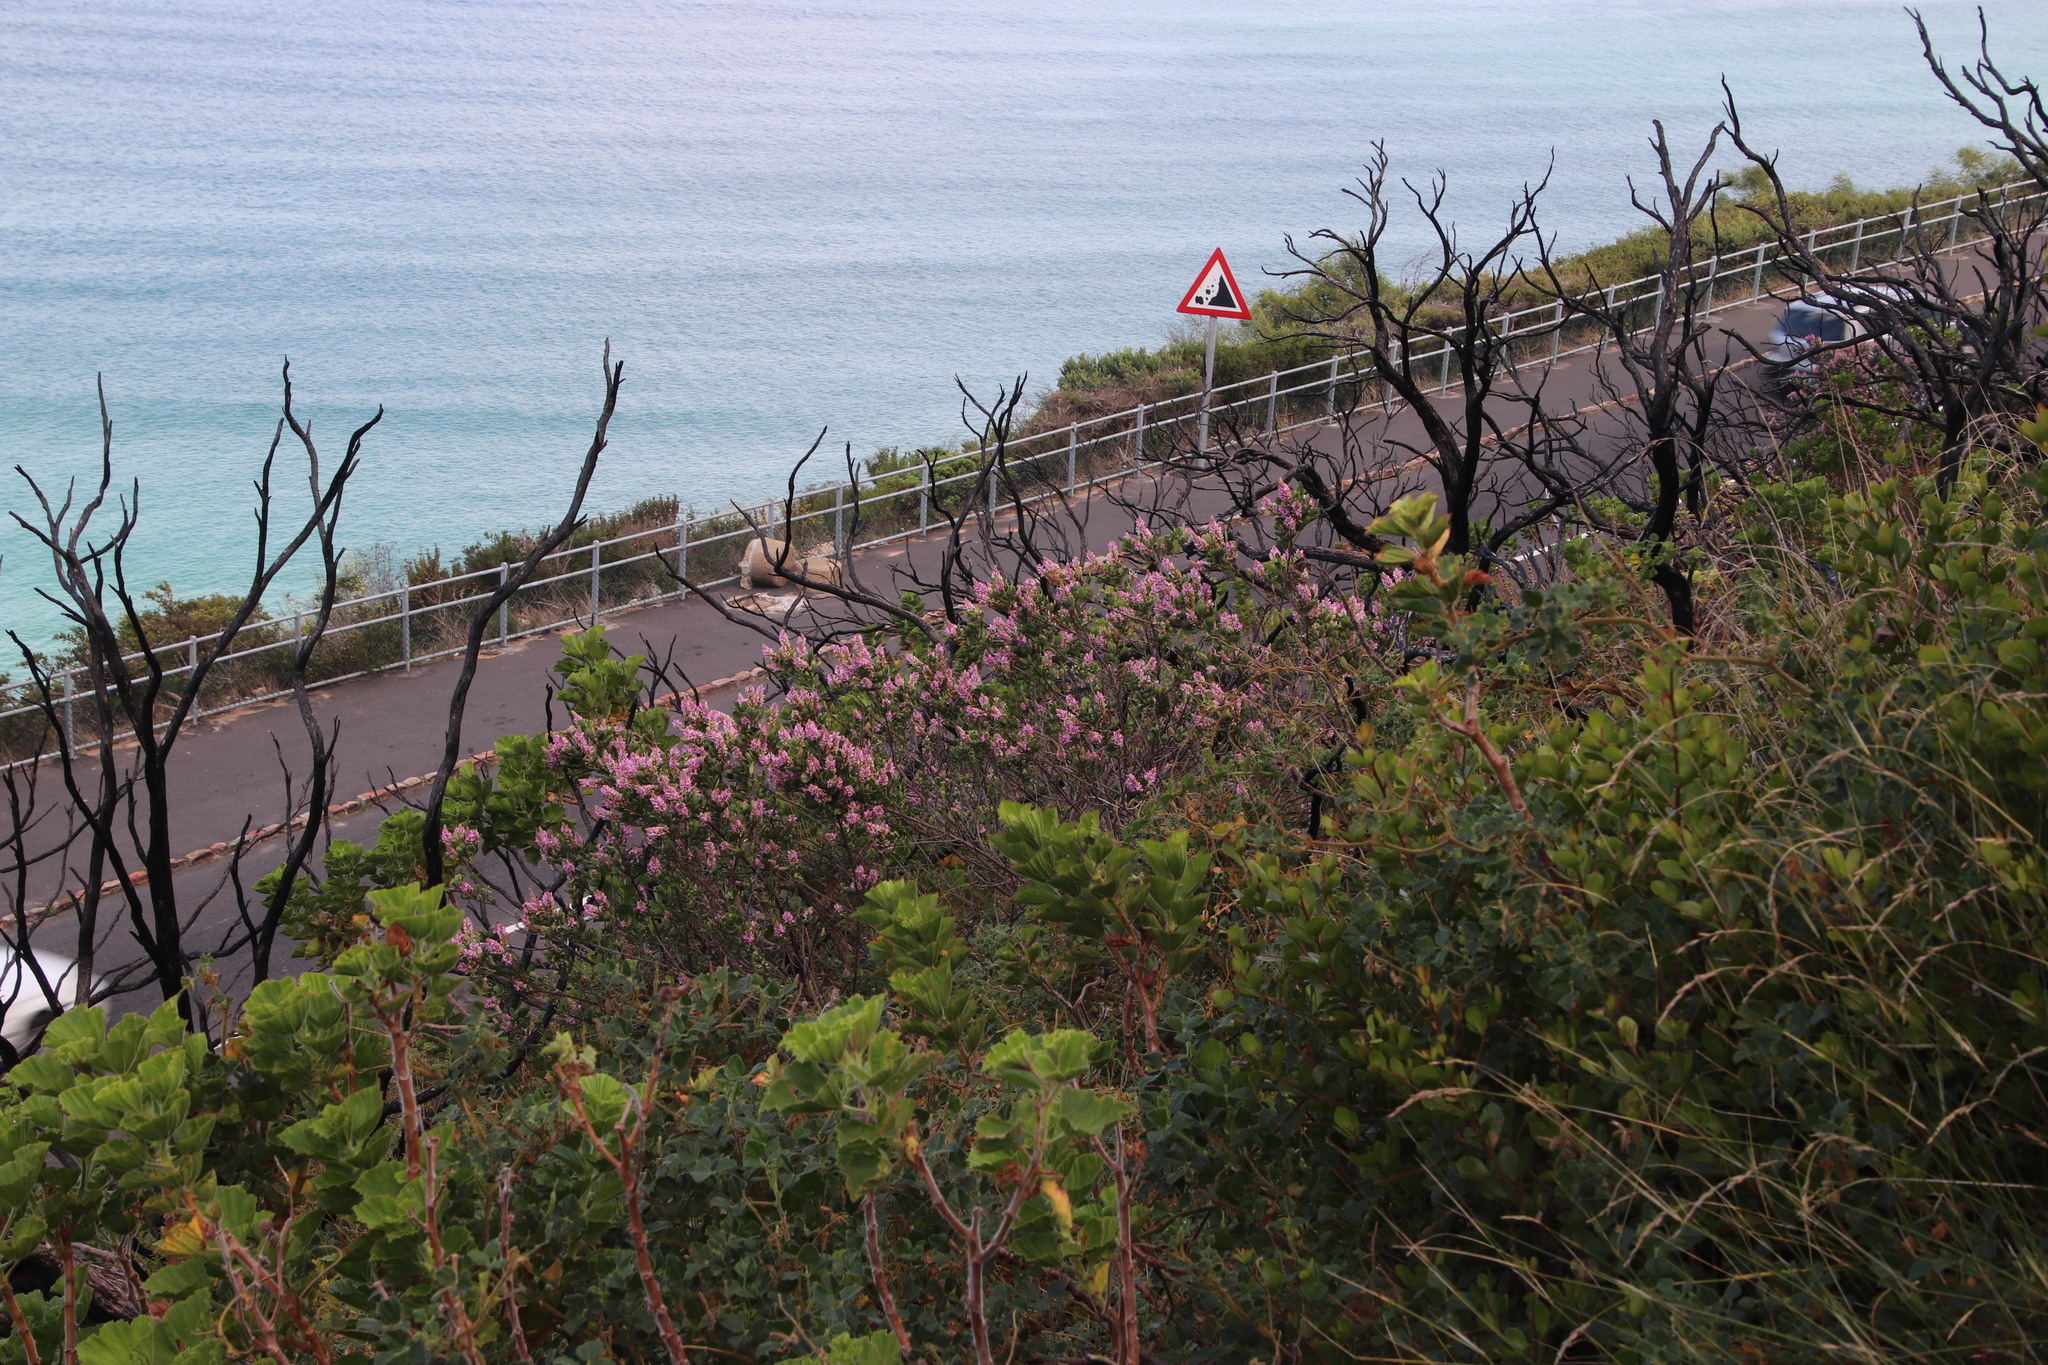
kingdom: Plantae
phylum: Tracheophyta
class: Magnoliopsida
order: Fabales
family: Fabaceae
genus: Indigofera
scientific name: Indigofera cytisoides
